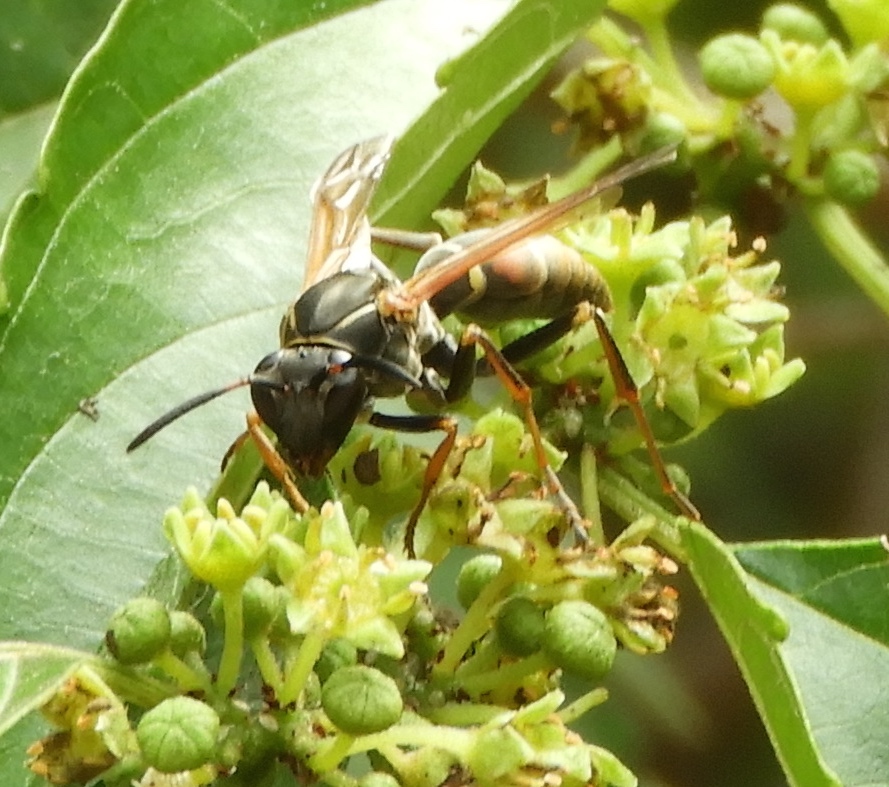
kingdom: Animalia
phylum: Arthropoda
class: Insecta
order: Hymenoptera
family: Eumenidae
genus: Polistes
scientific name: Polistes pacificus
